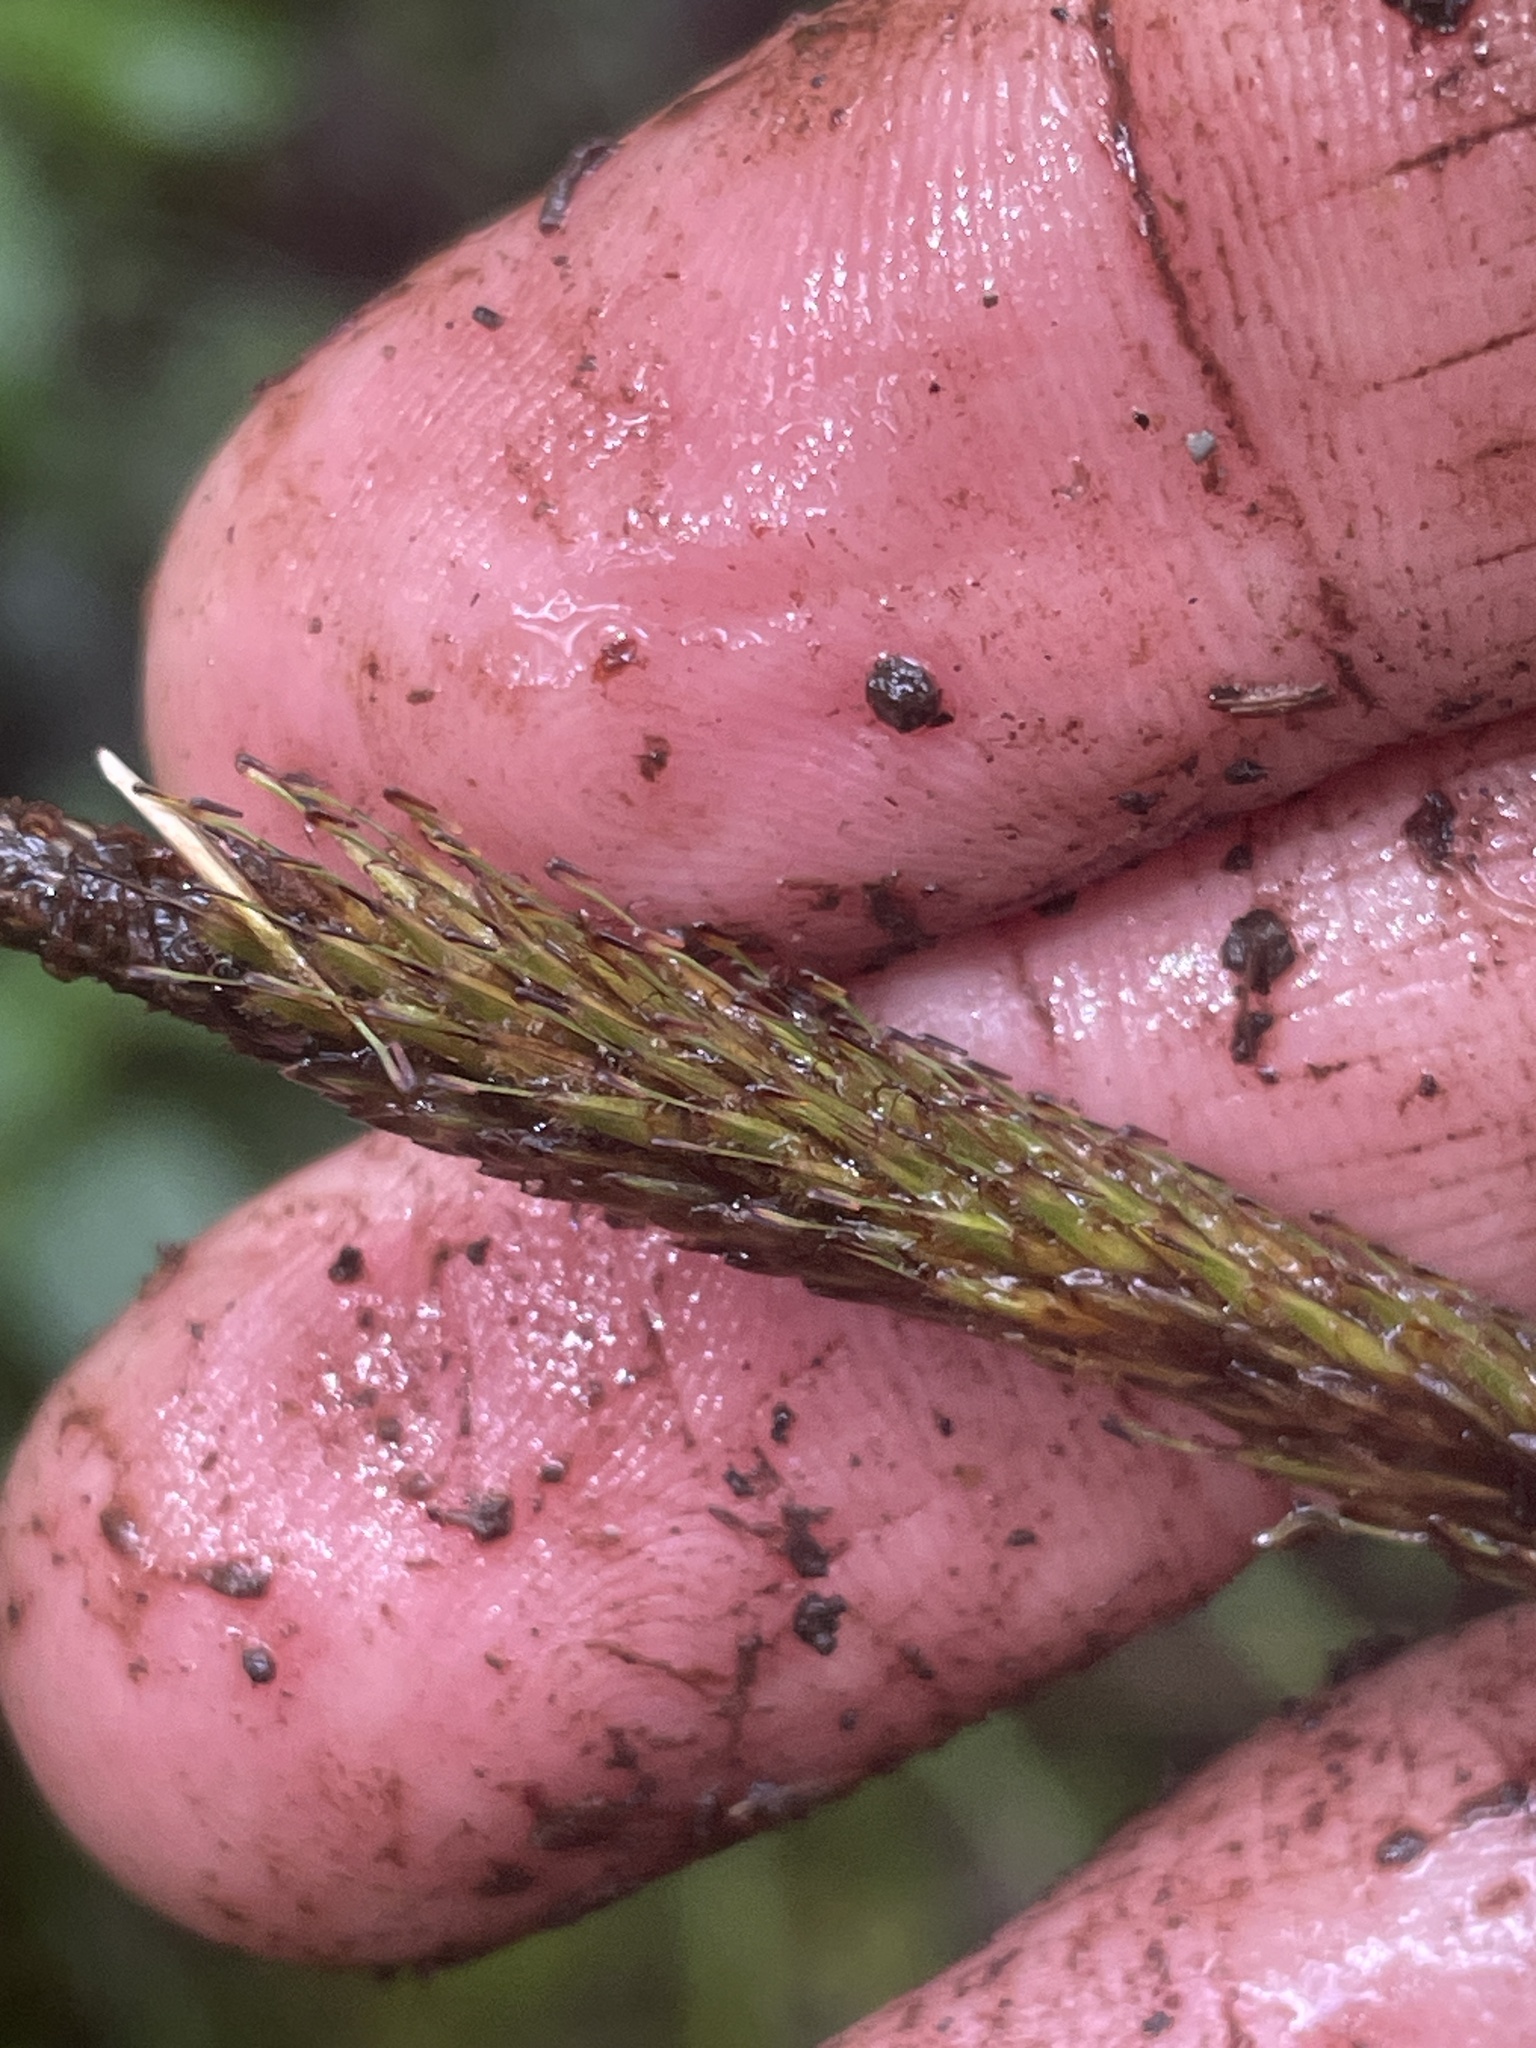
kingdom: Plantae
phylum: Tracheophyta
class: Liliopsida
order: Poales
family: Cyperaceae
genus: Carex
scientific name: Carex phleoides
